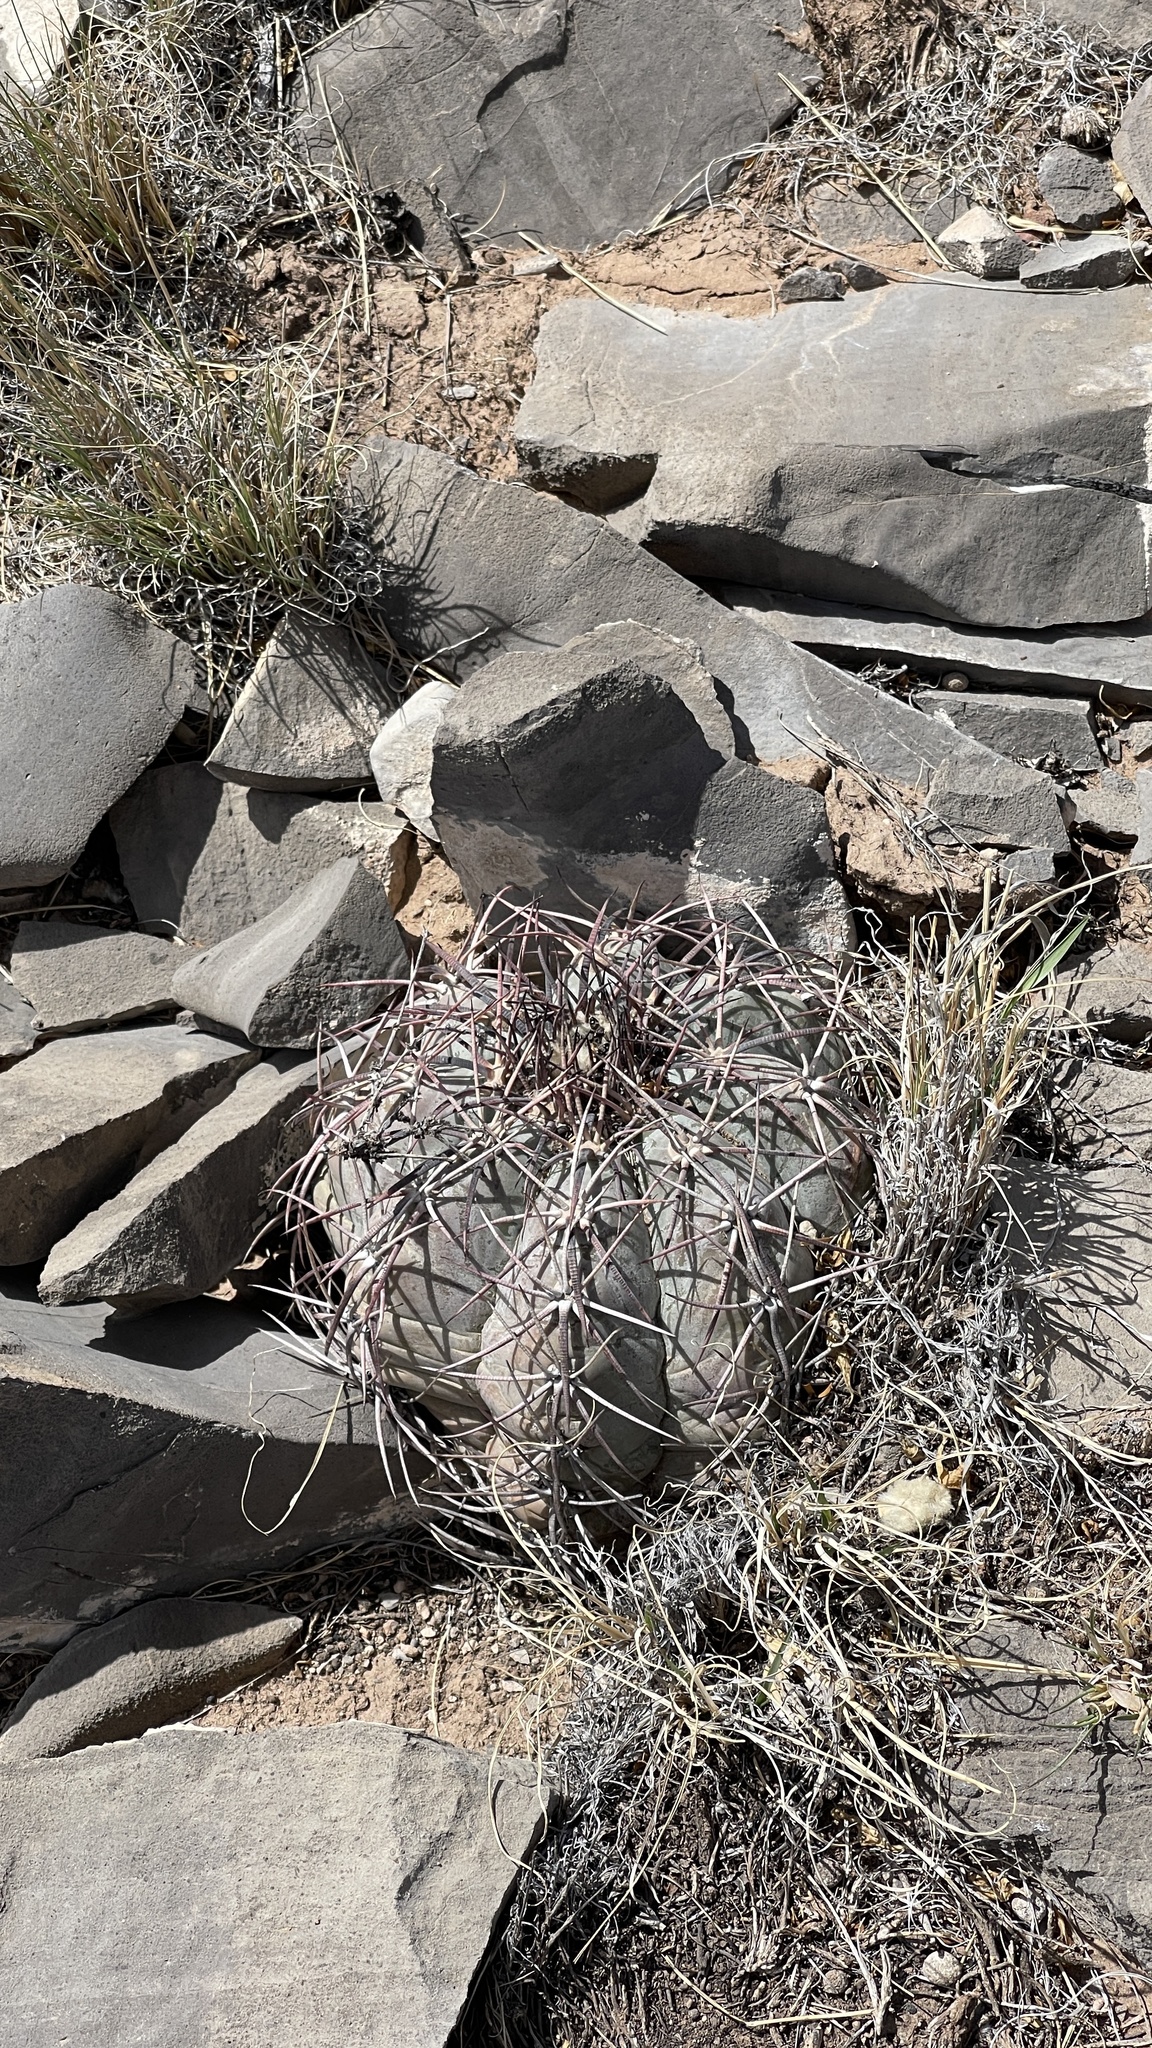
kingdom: Plantae
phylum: Tracheophyta
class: Magnoliopsida
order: Caryophyllales
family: Cactaceae
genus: Echinocactus
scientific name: Echinocactus horizonthalonius
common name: Devilshead
